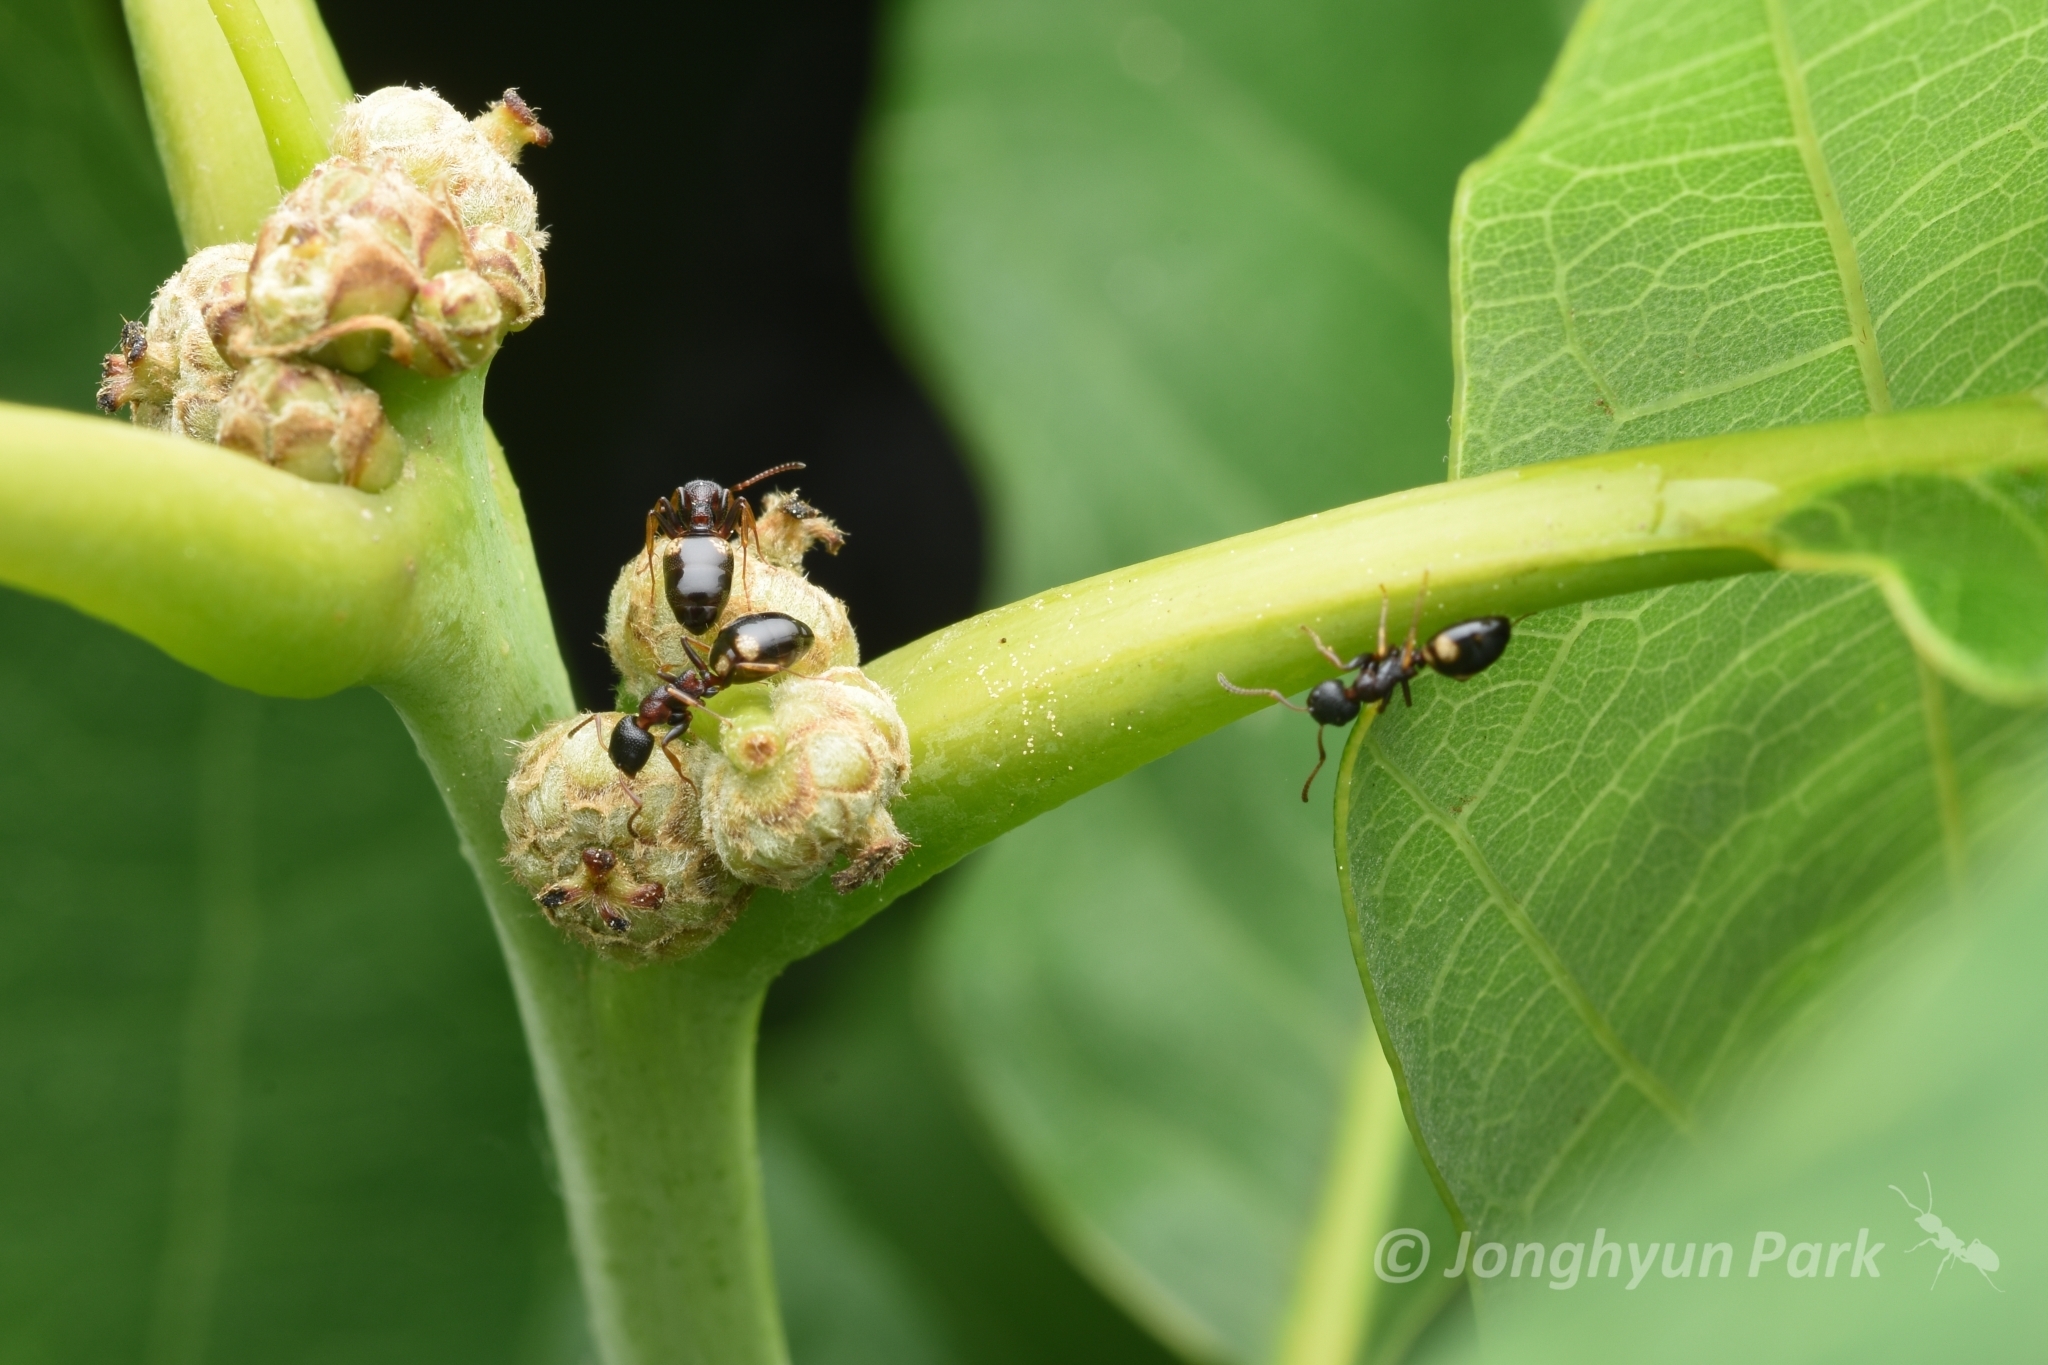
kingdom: Animalia
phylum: Arthropoda
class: Insecta
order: Hymenoptera
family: Formicidae
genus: Dolichoderus
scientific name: Dolichoderus sibiricus
